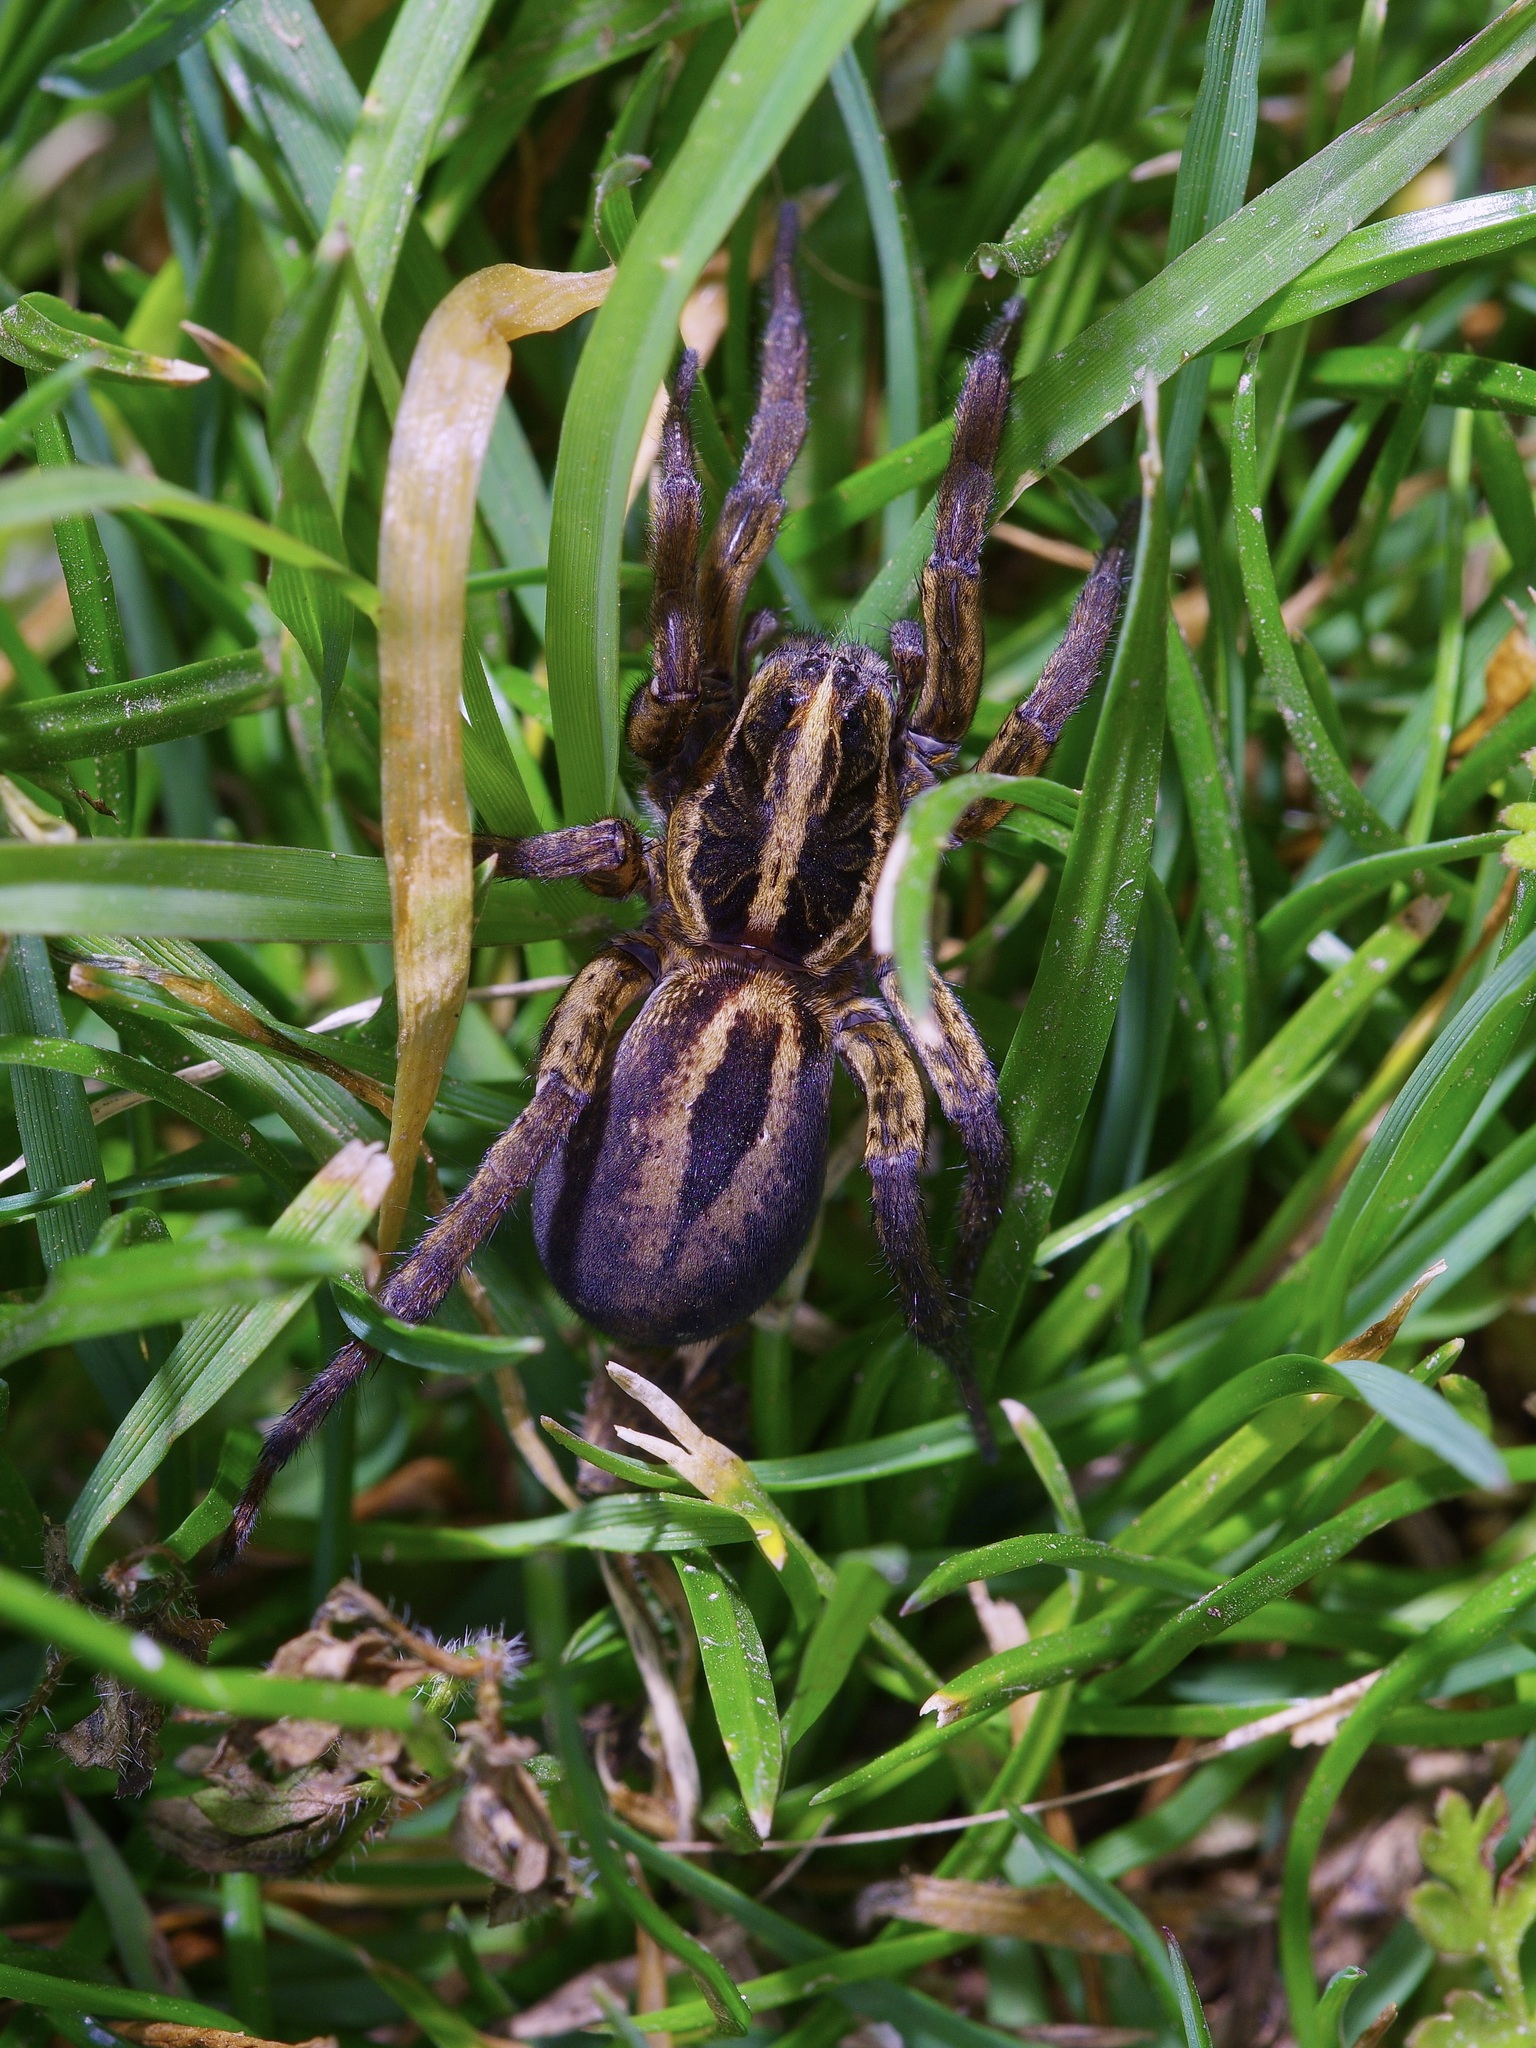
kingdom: Animalia
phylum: Arthropoda
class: Arachnida
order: Araneae
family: Lycosidae
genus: Tigrosa
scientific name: Tigrosa annexa
